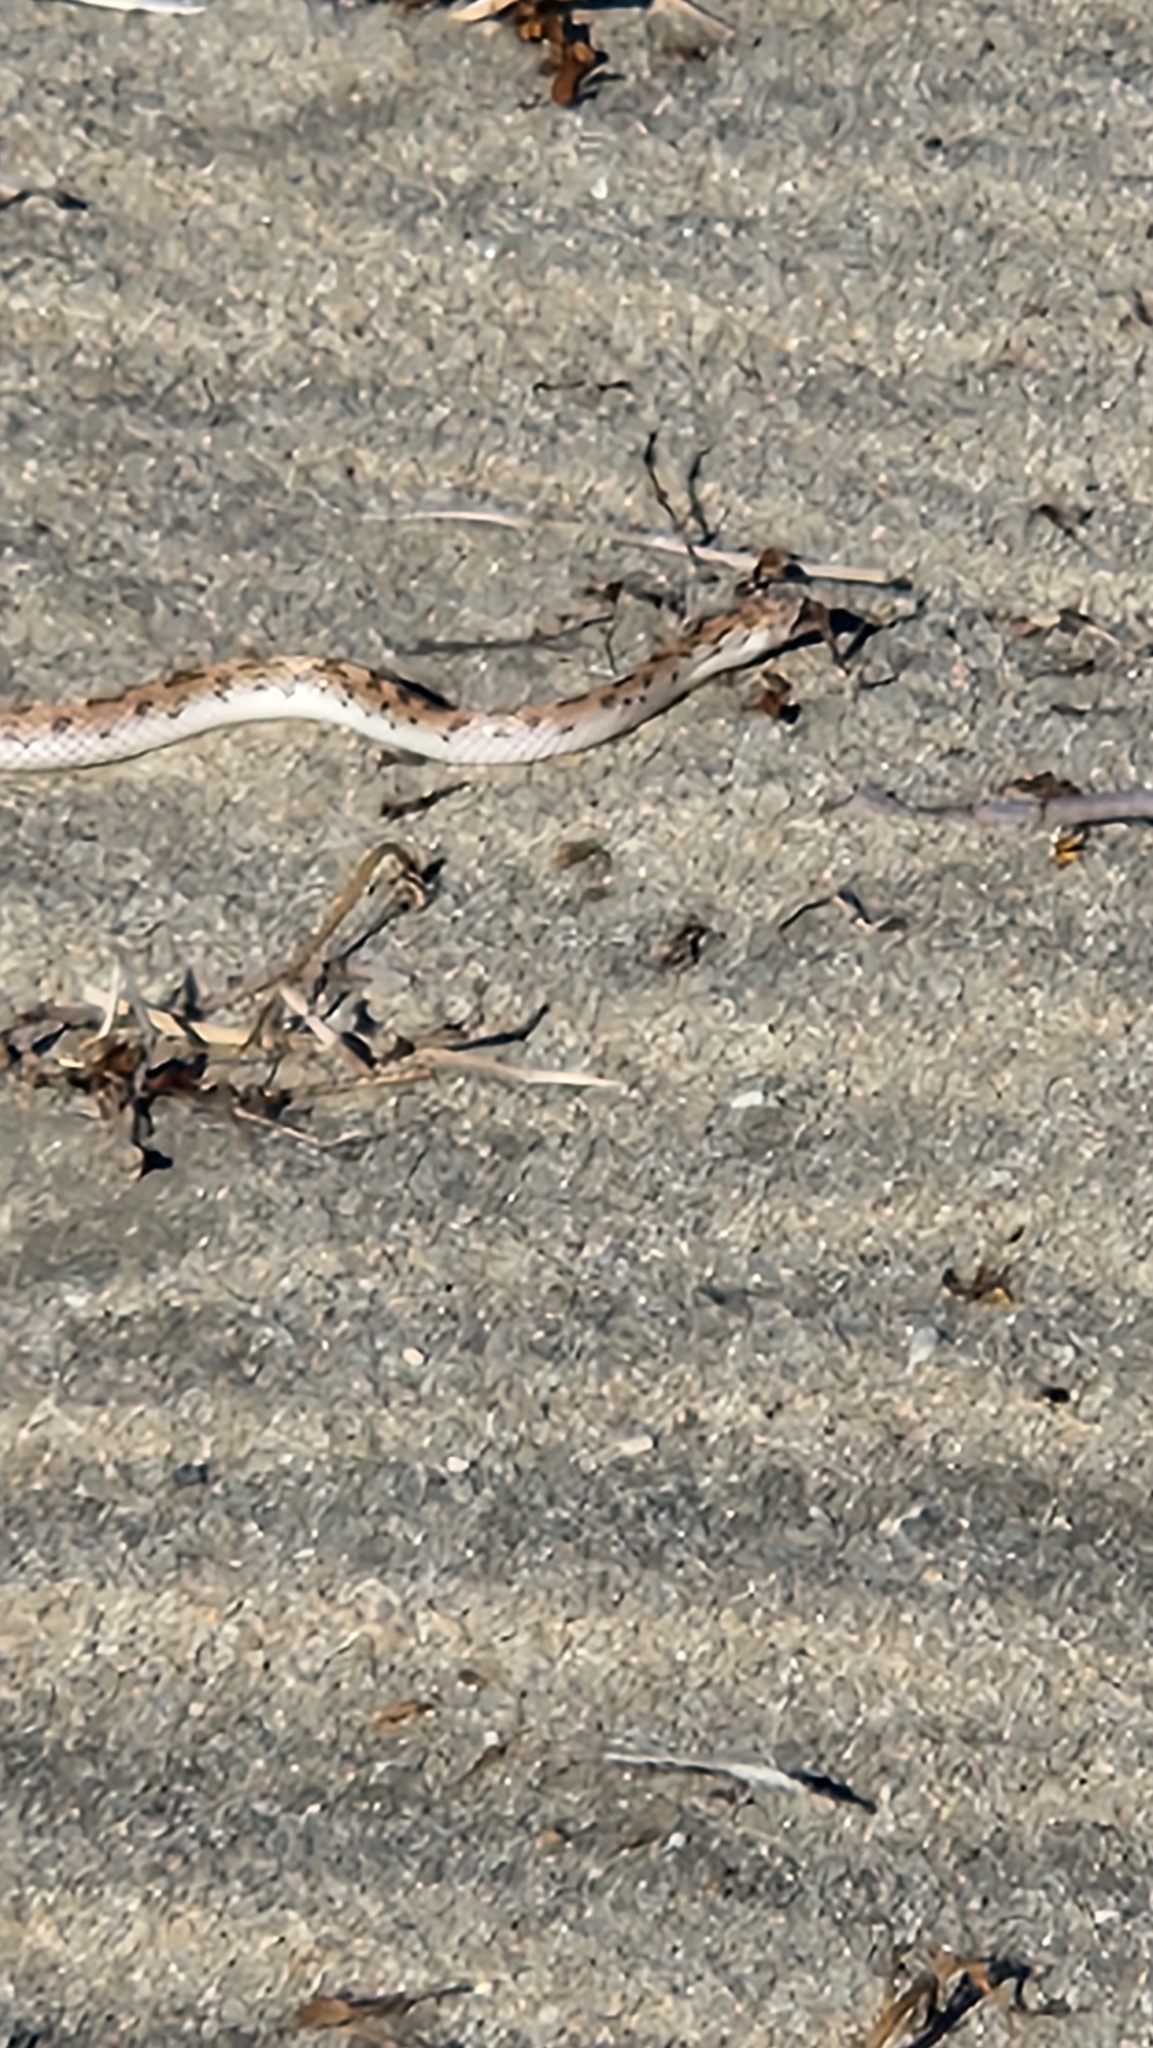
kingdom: Animalia
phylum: Chordata
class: Squamata
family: Colubridae
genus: Phyllorhynchus
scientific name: Phyllorhynchus decurtatus
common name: Spotted leafnose snake
